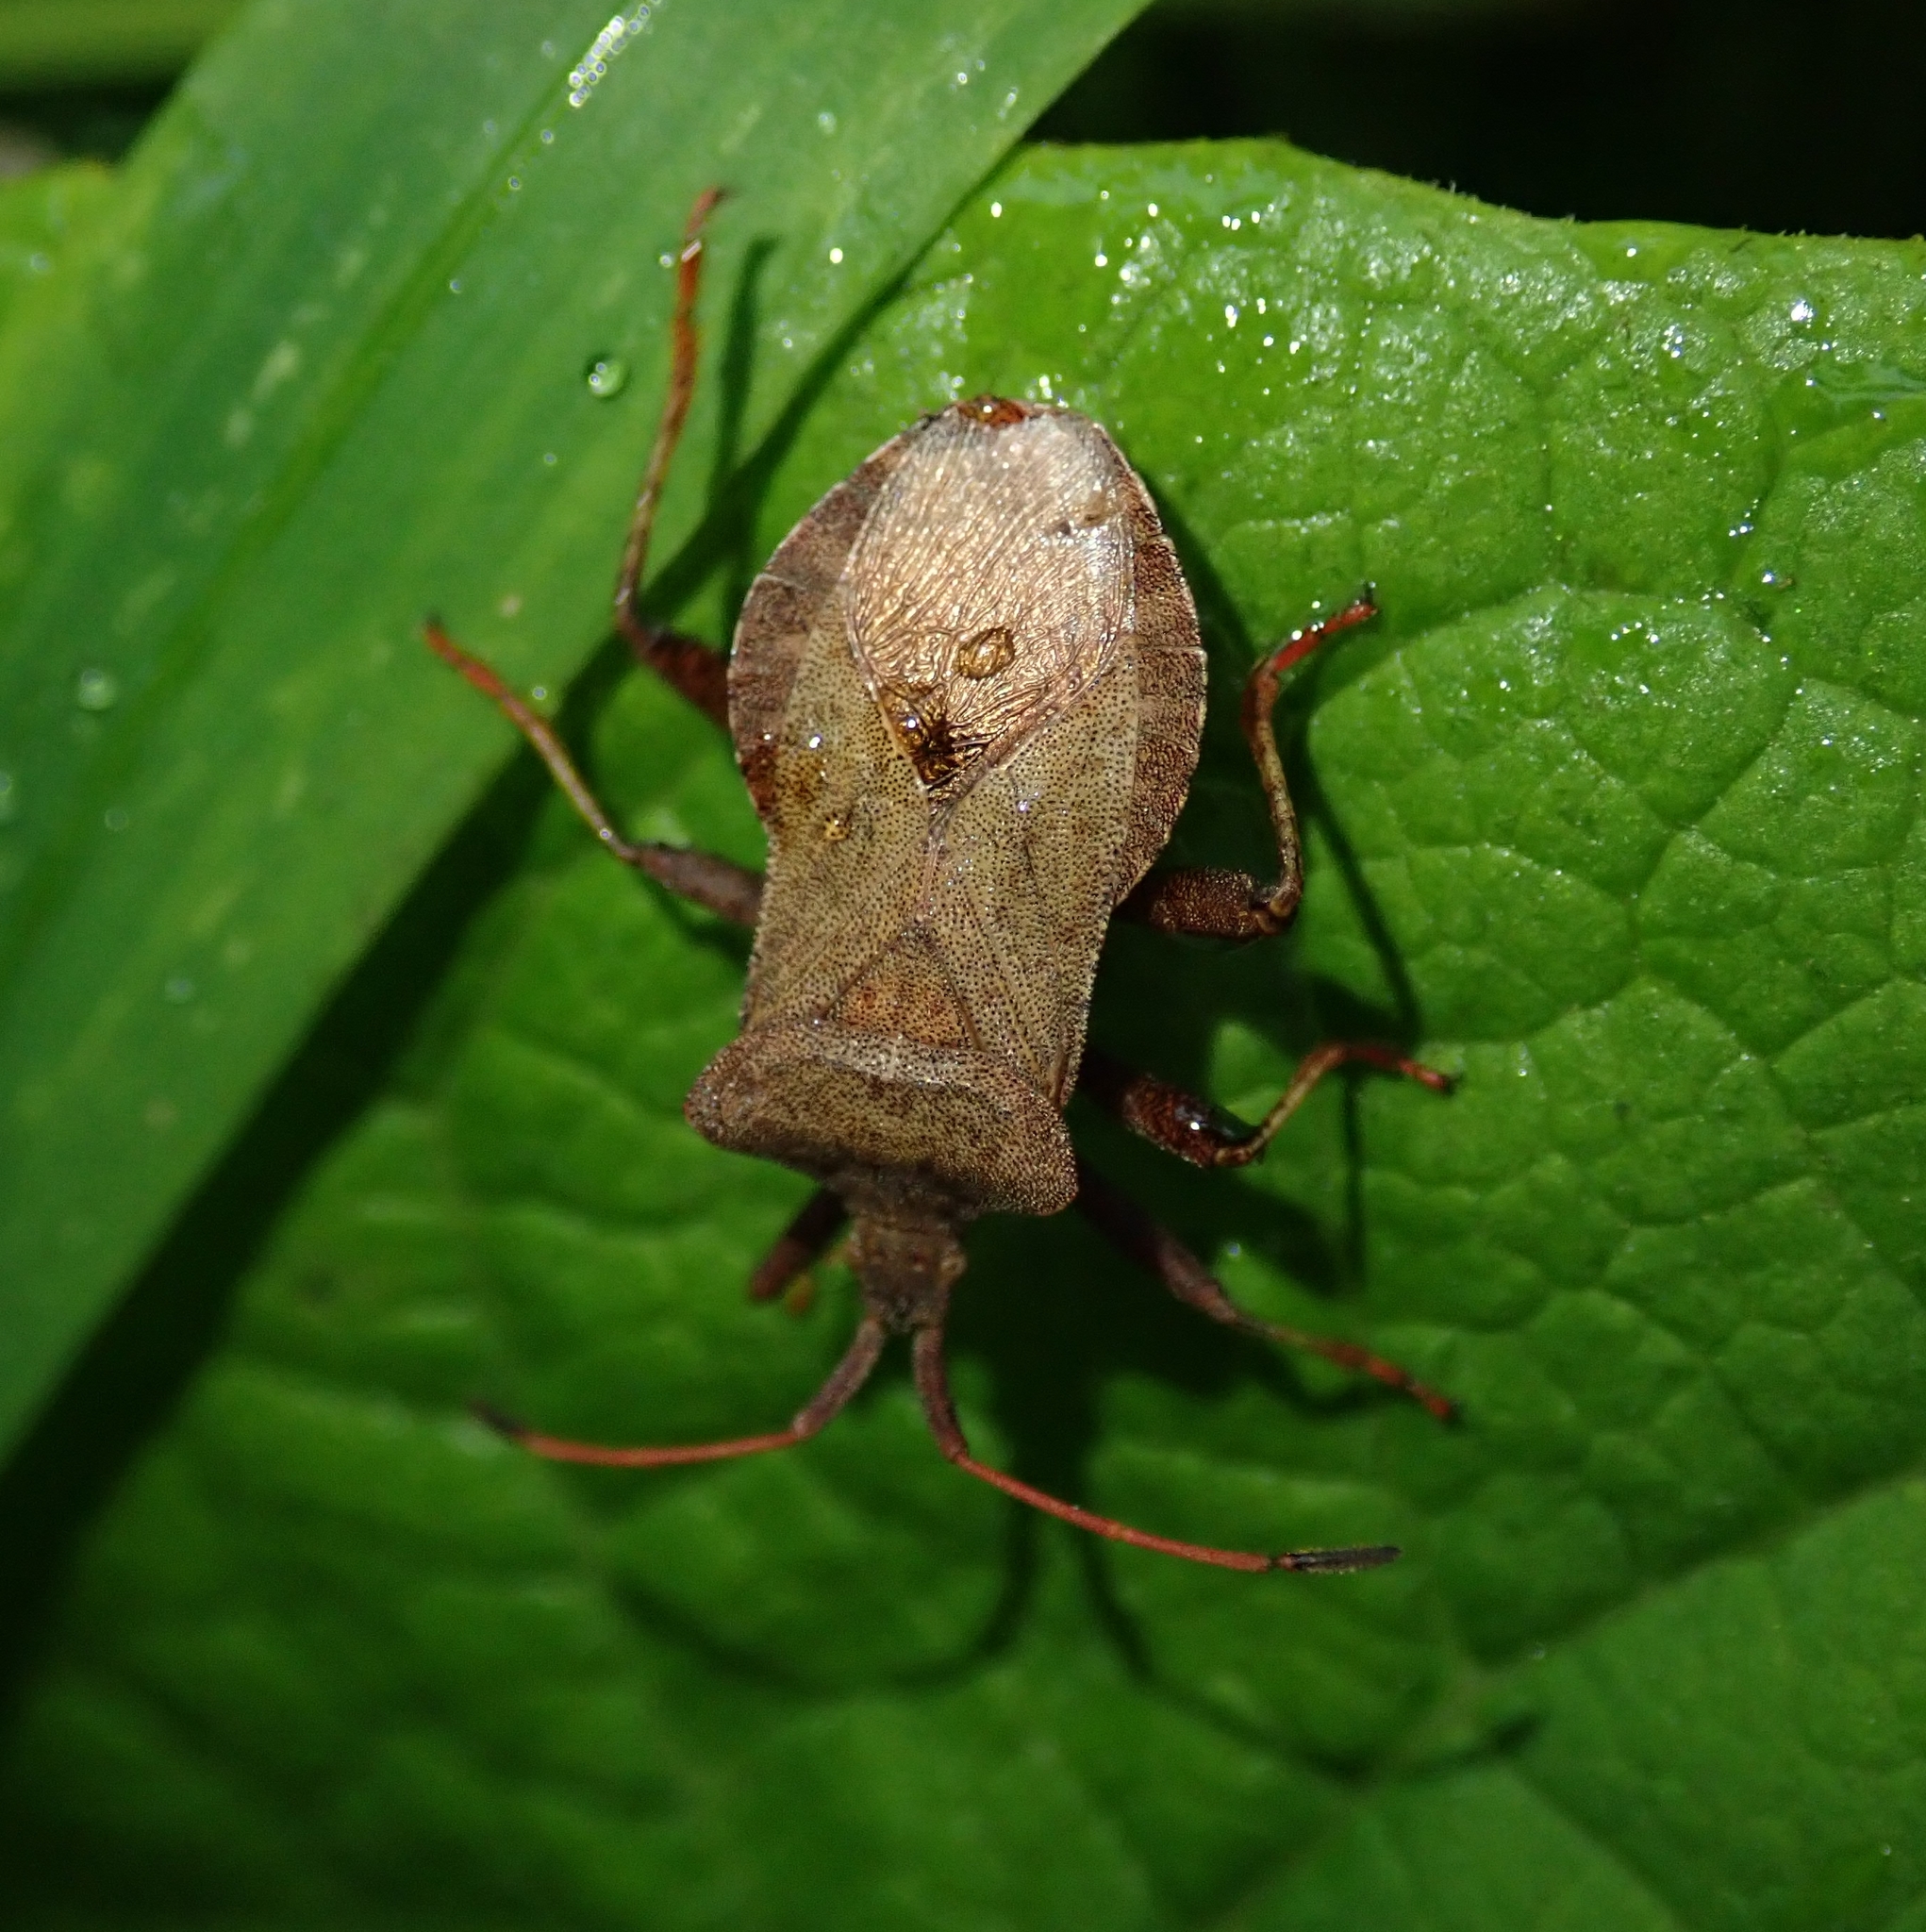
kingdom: Animalia
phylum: Arthropoda
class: Insecta
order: Hemiptera
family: Coreidae
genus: Coreus
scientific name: Coreus marginatus
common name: Dock bug
